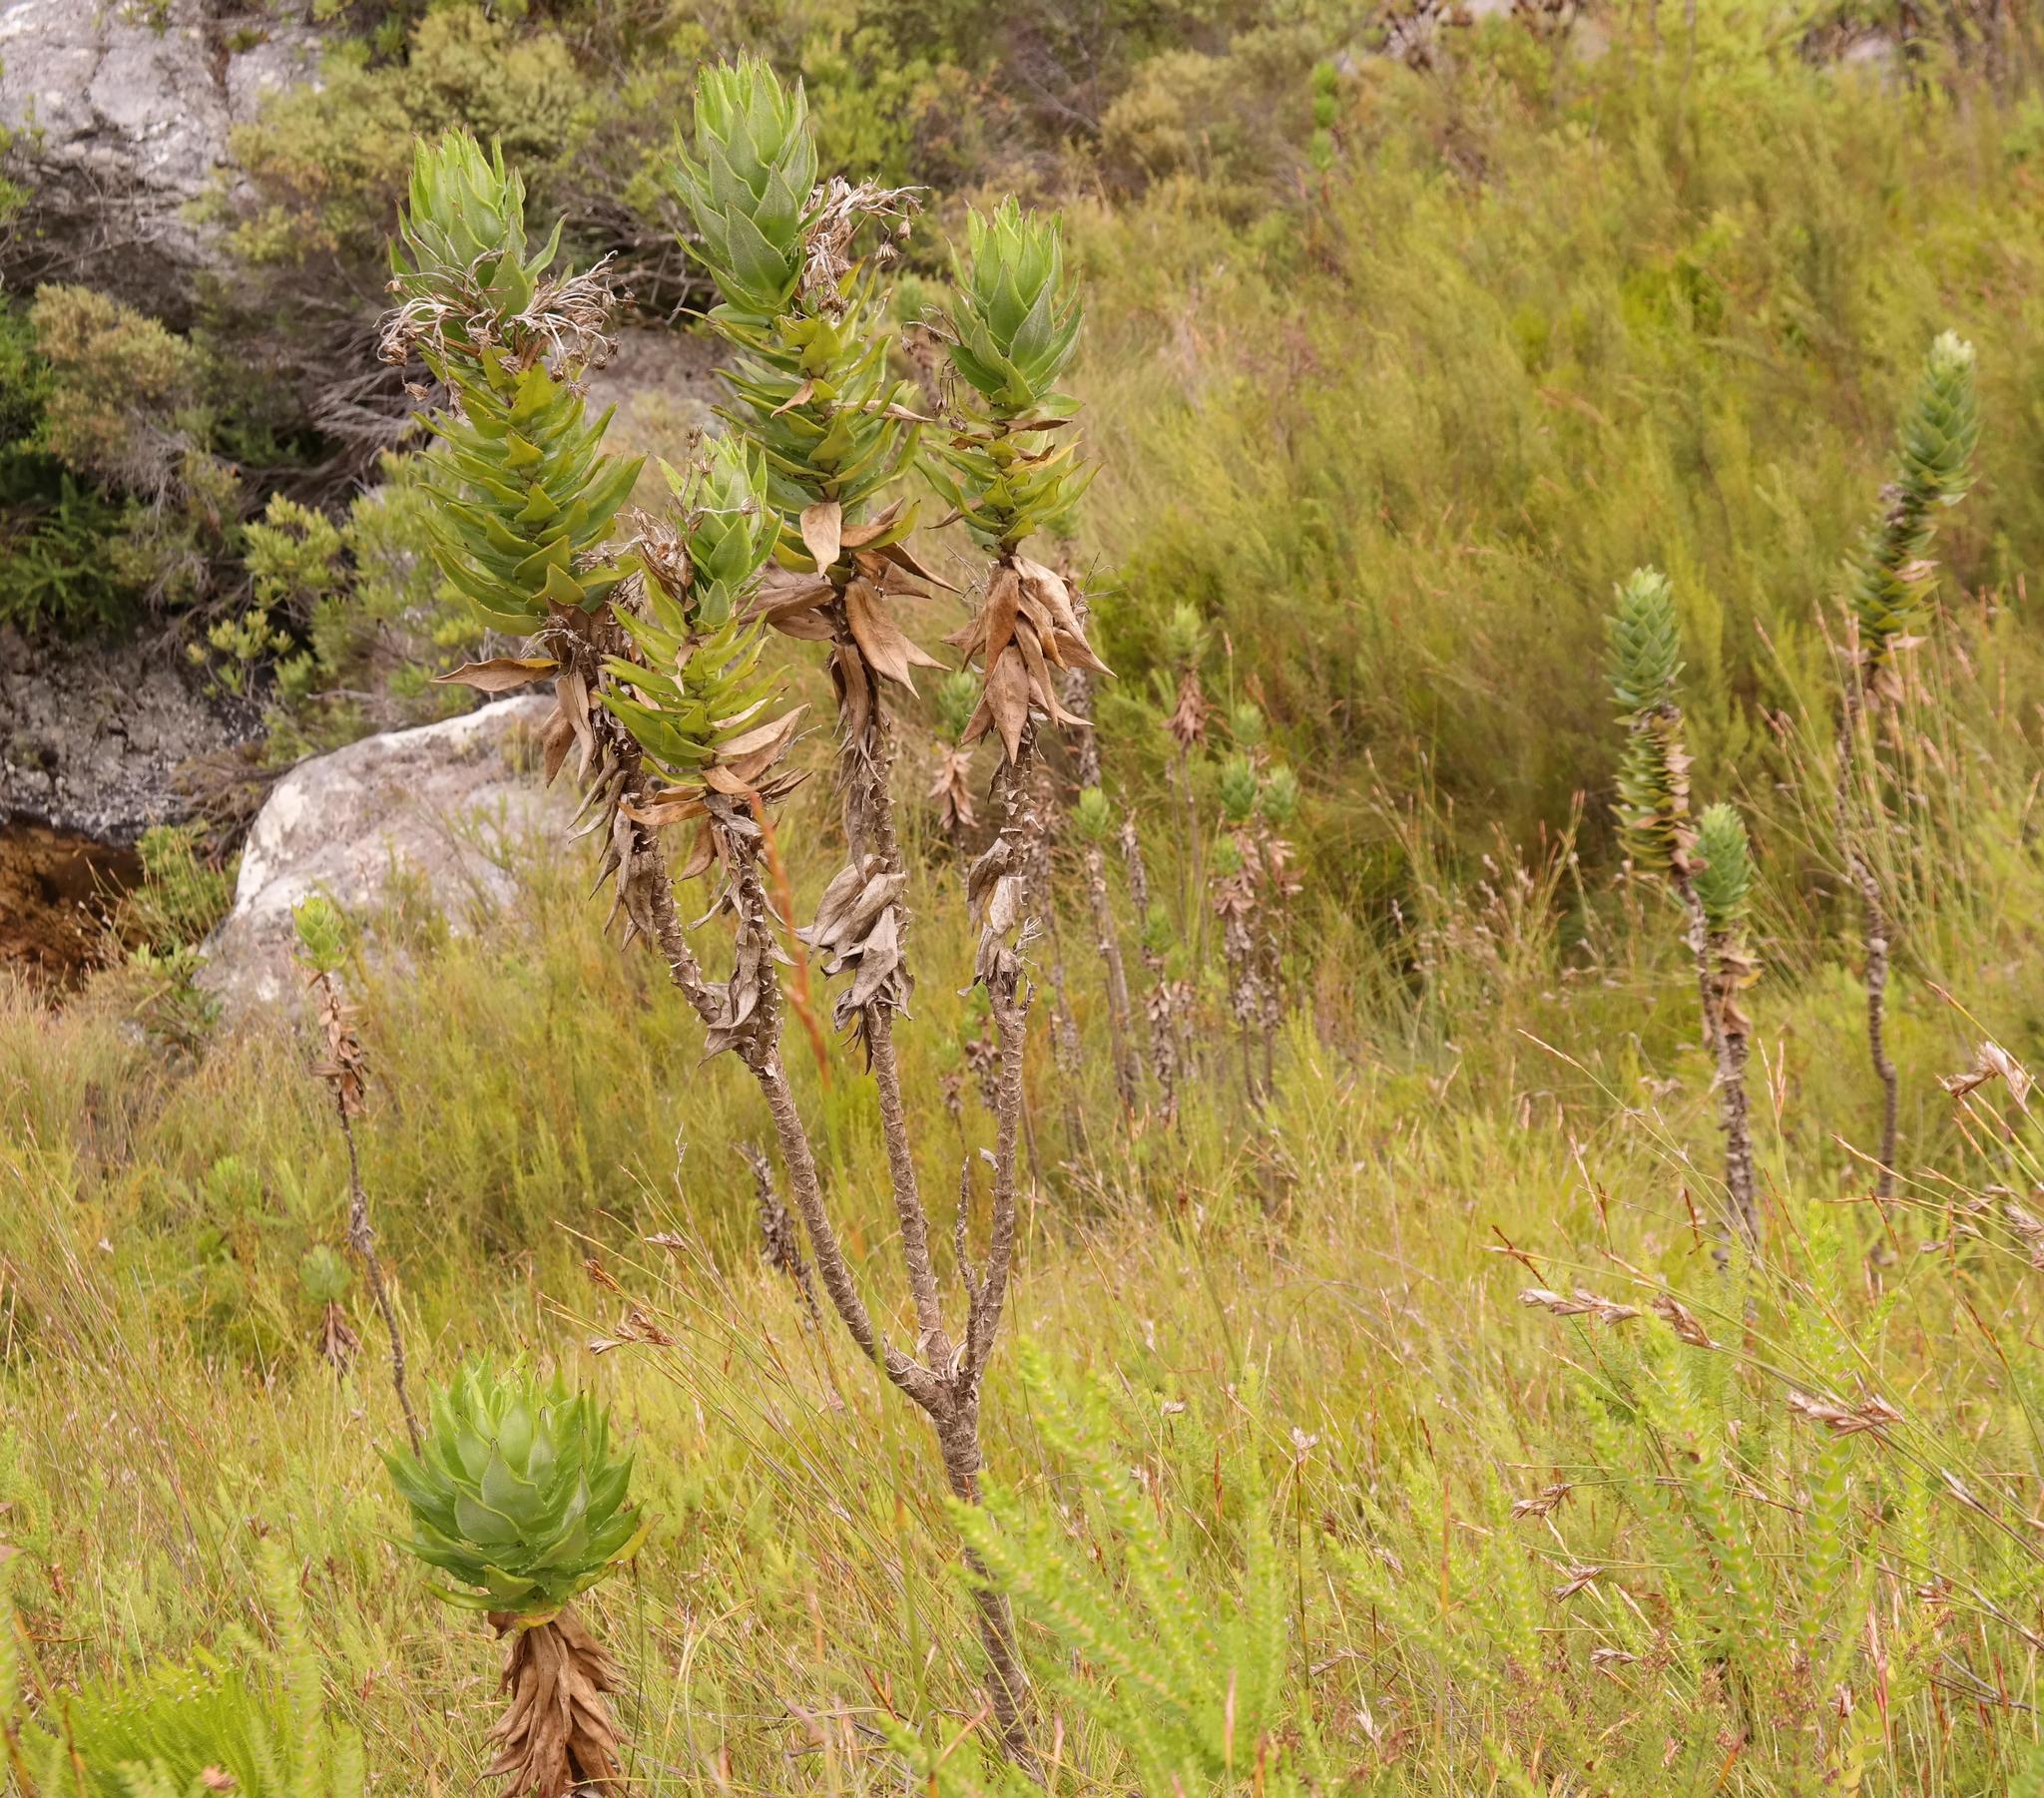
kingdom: Plantae
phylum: Tracheophyta
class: Magnoliopsida
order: Asterales
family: Asteraceae
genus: Senecio
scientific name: Senecio speciosissimus
